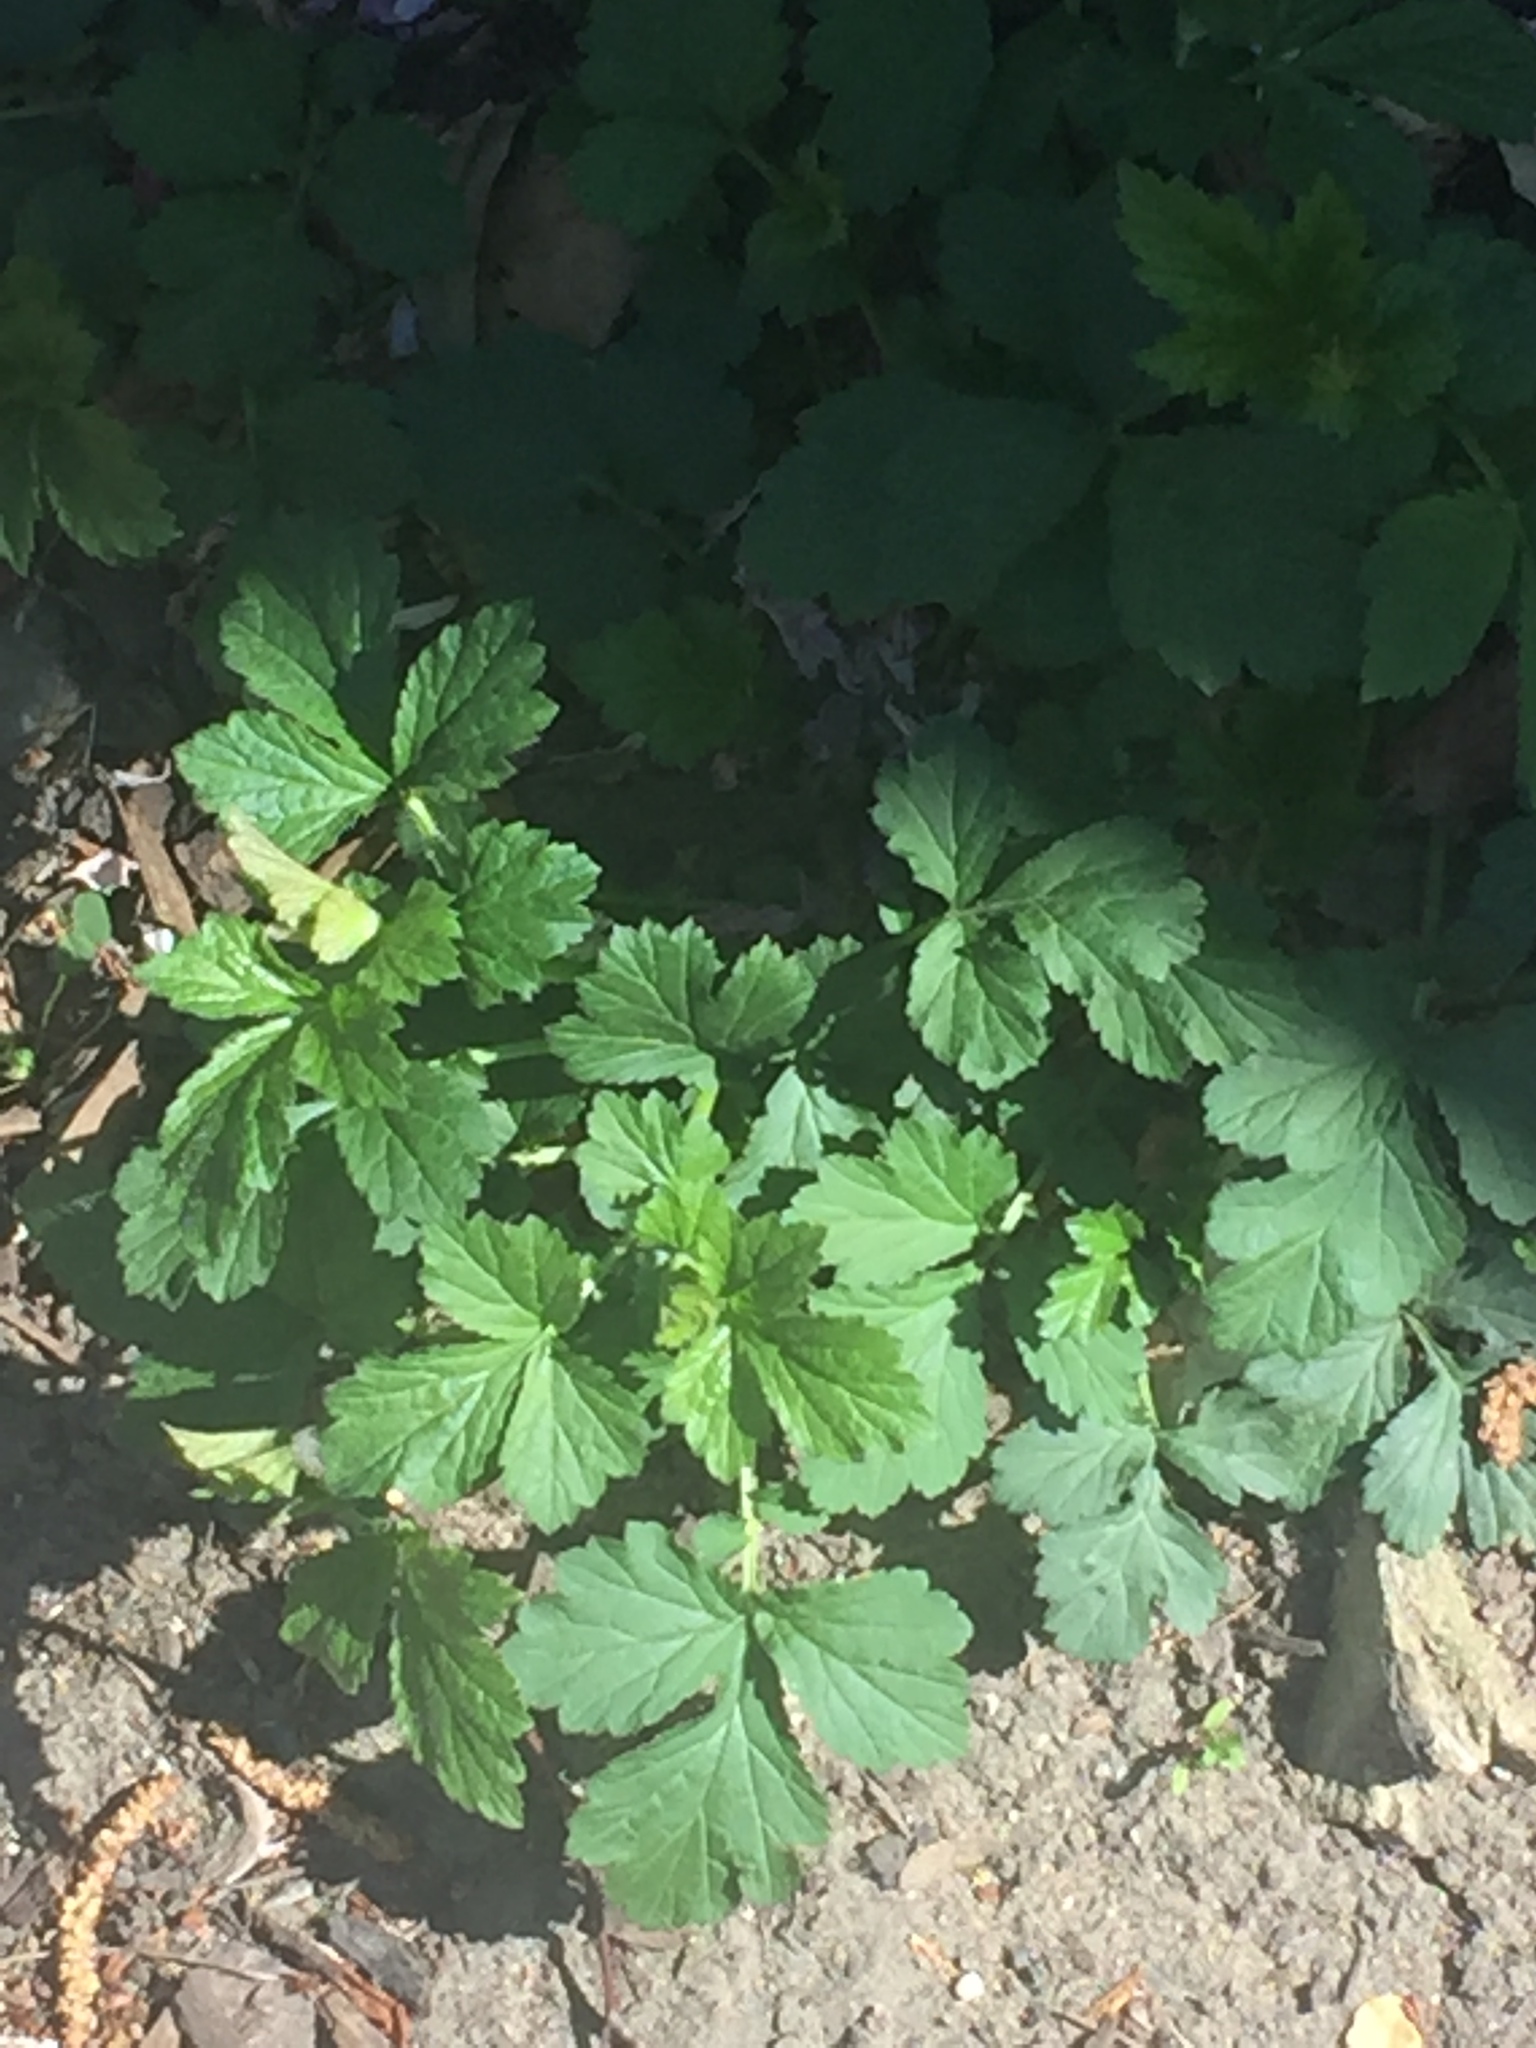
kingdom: Plantae
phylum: Tracheophyta
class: Magnoliopsida
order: Rosales
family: Rosaceae
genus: Geum
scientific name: Geum urbanum
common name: Wood avens
